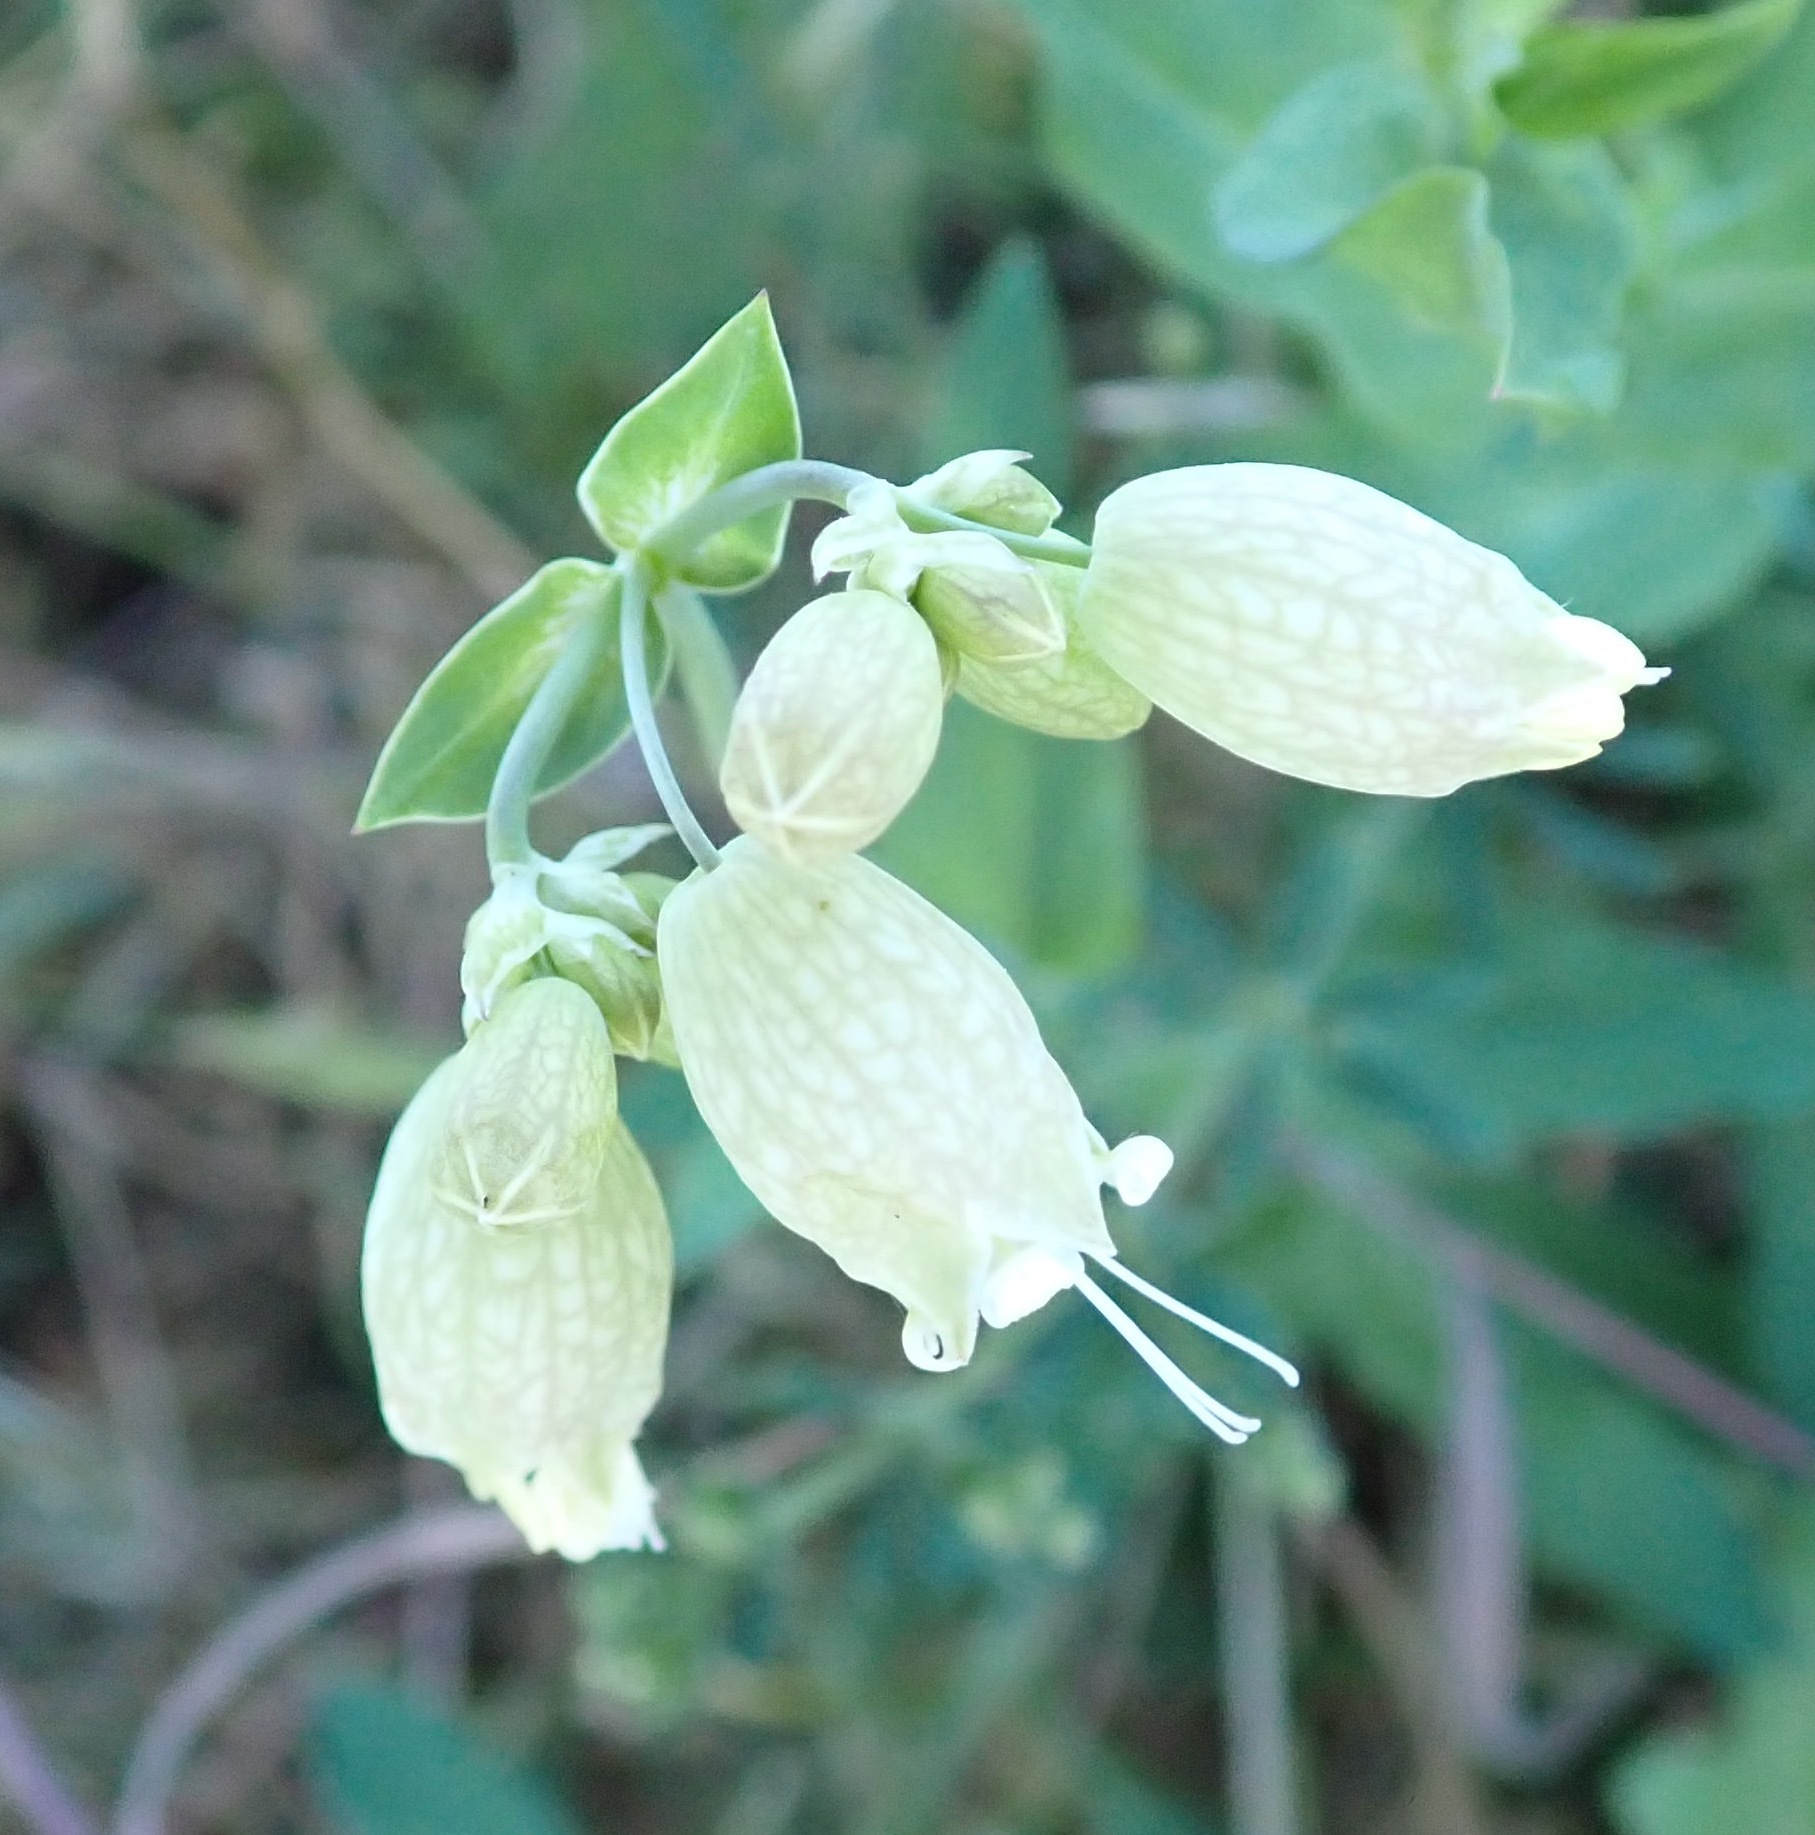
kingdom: Plantae
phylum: Tracheophyta
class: Magnoliopsida
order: Caryophyllales
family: Caryophyllaceae
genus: Silene
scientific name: Silene vulgaris
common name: Bladder campion
